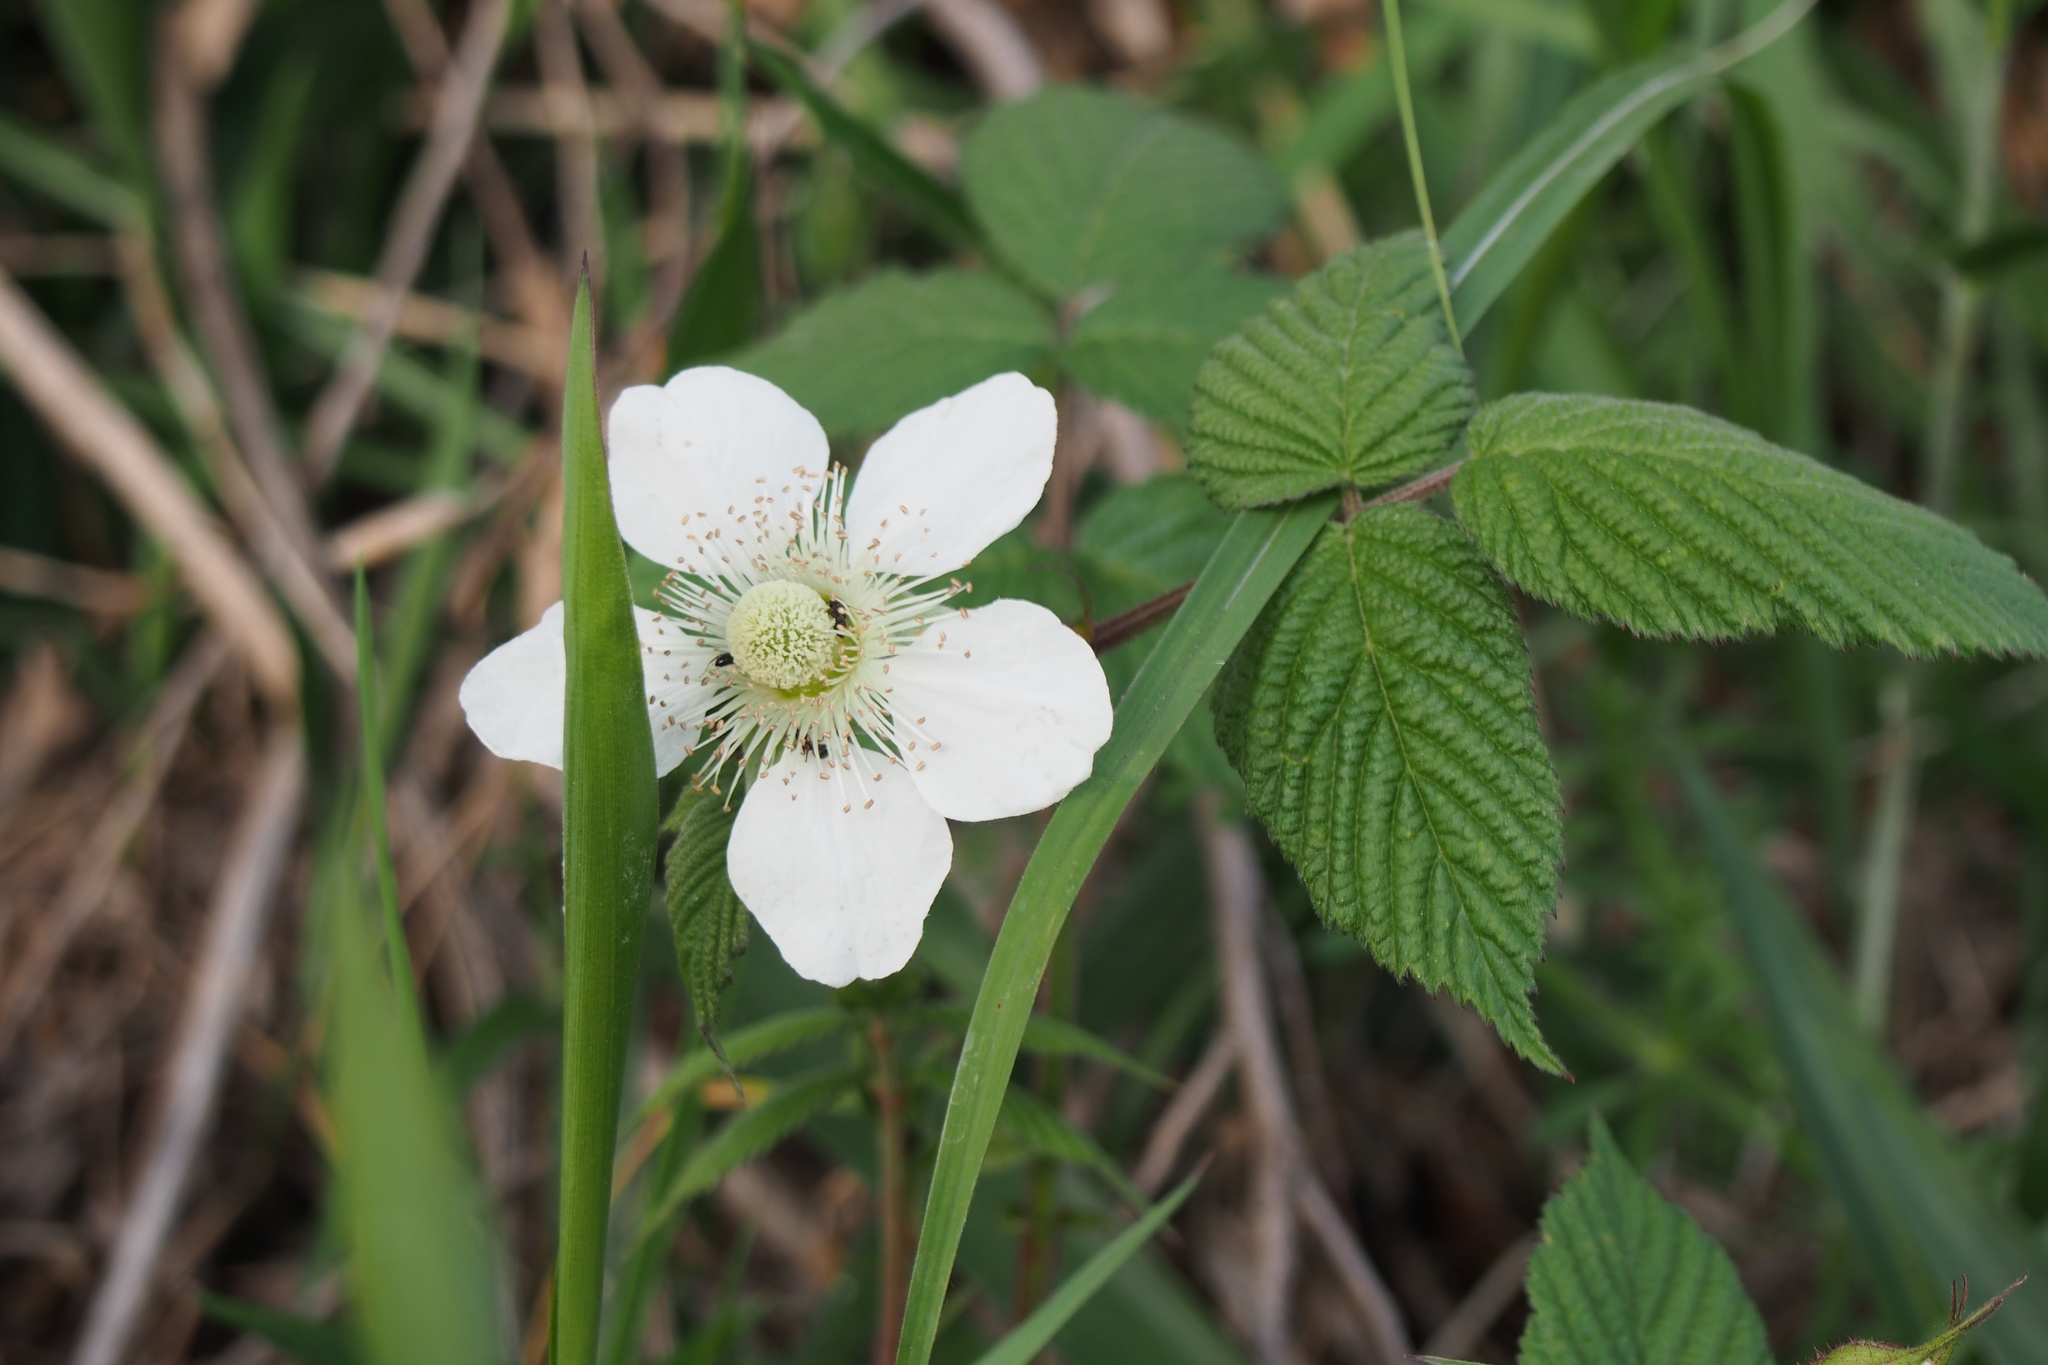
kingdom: Plantae
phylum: Tracheophyta
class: Magnoliopsida
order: Rosales
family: Rosaceae
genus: Rubus
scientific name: Rubus hirsutus
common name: Hirsute raspberry
